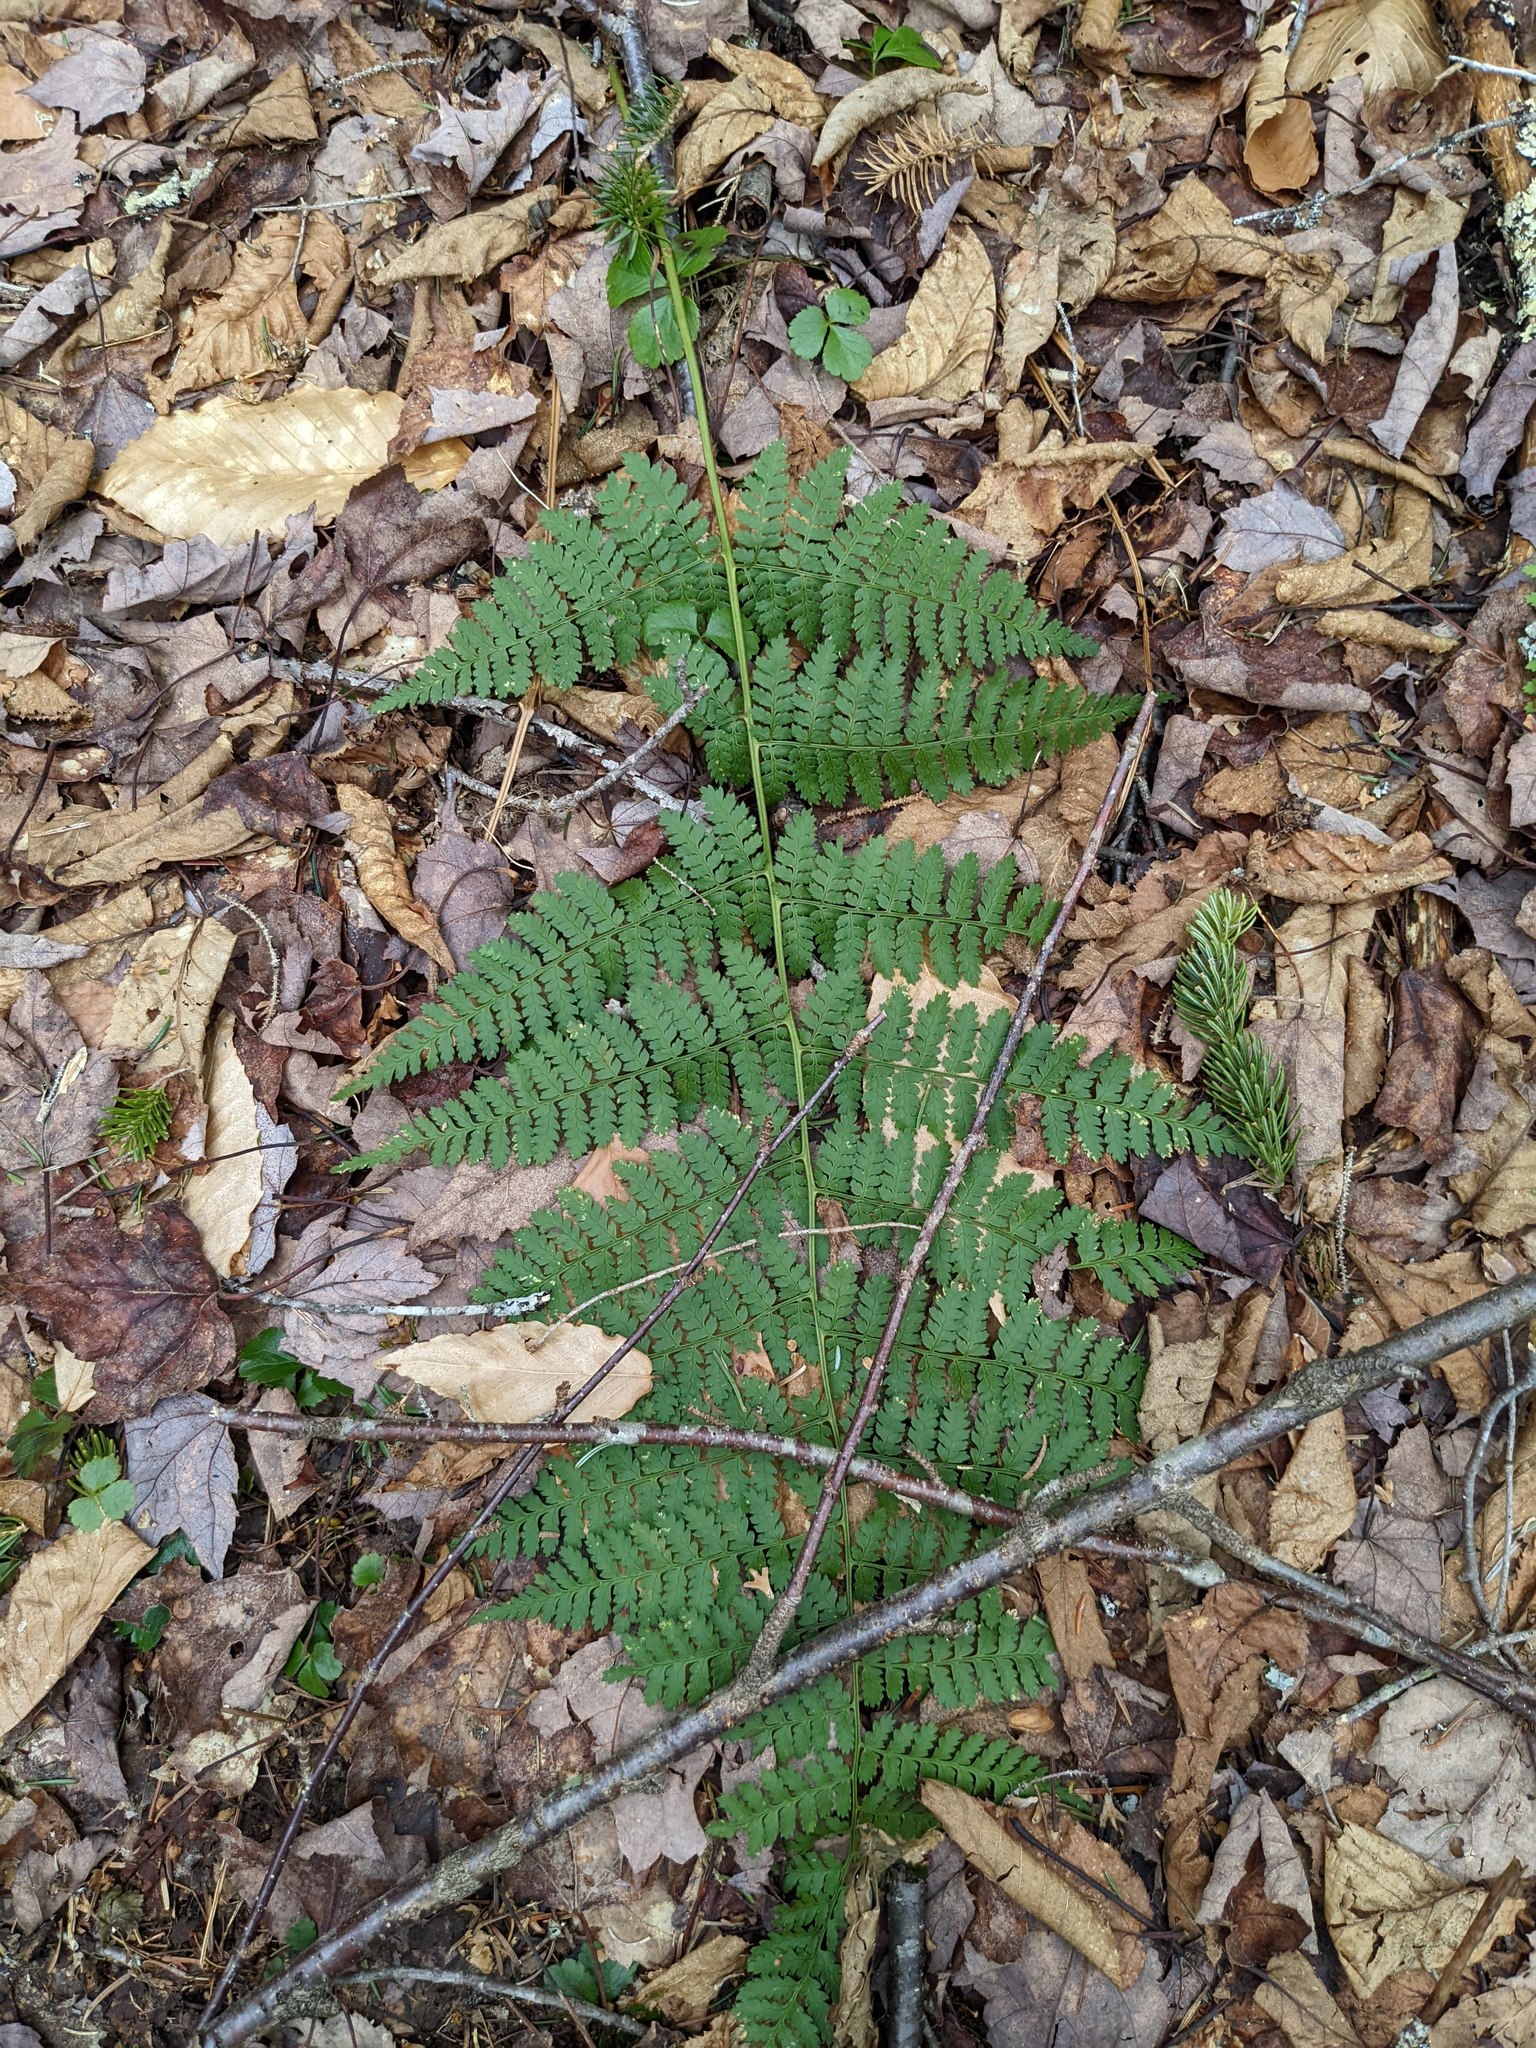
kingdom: Plantae
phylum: Tracheophyta
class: Polypodiopsida
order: Polypodiales
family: Dryopteridaceae
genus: Dryopteris
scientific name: Dryopteris intermedia
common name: Evergreen wood fern
